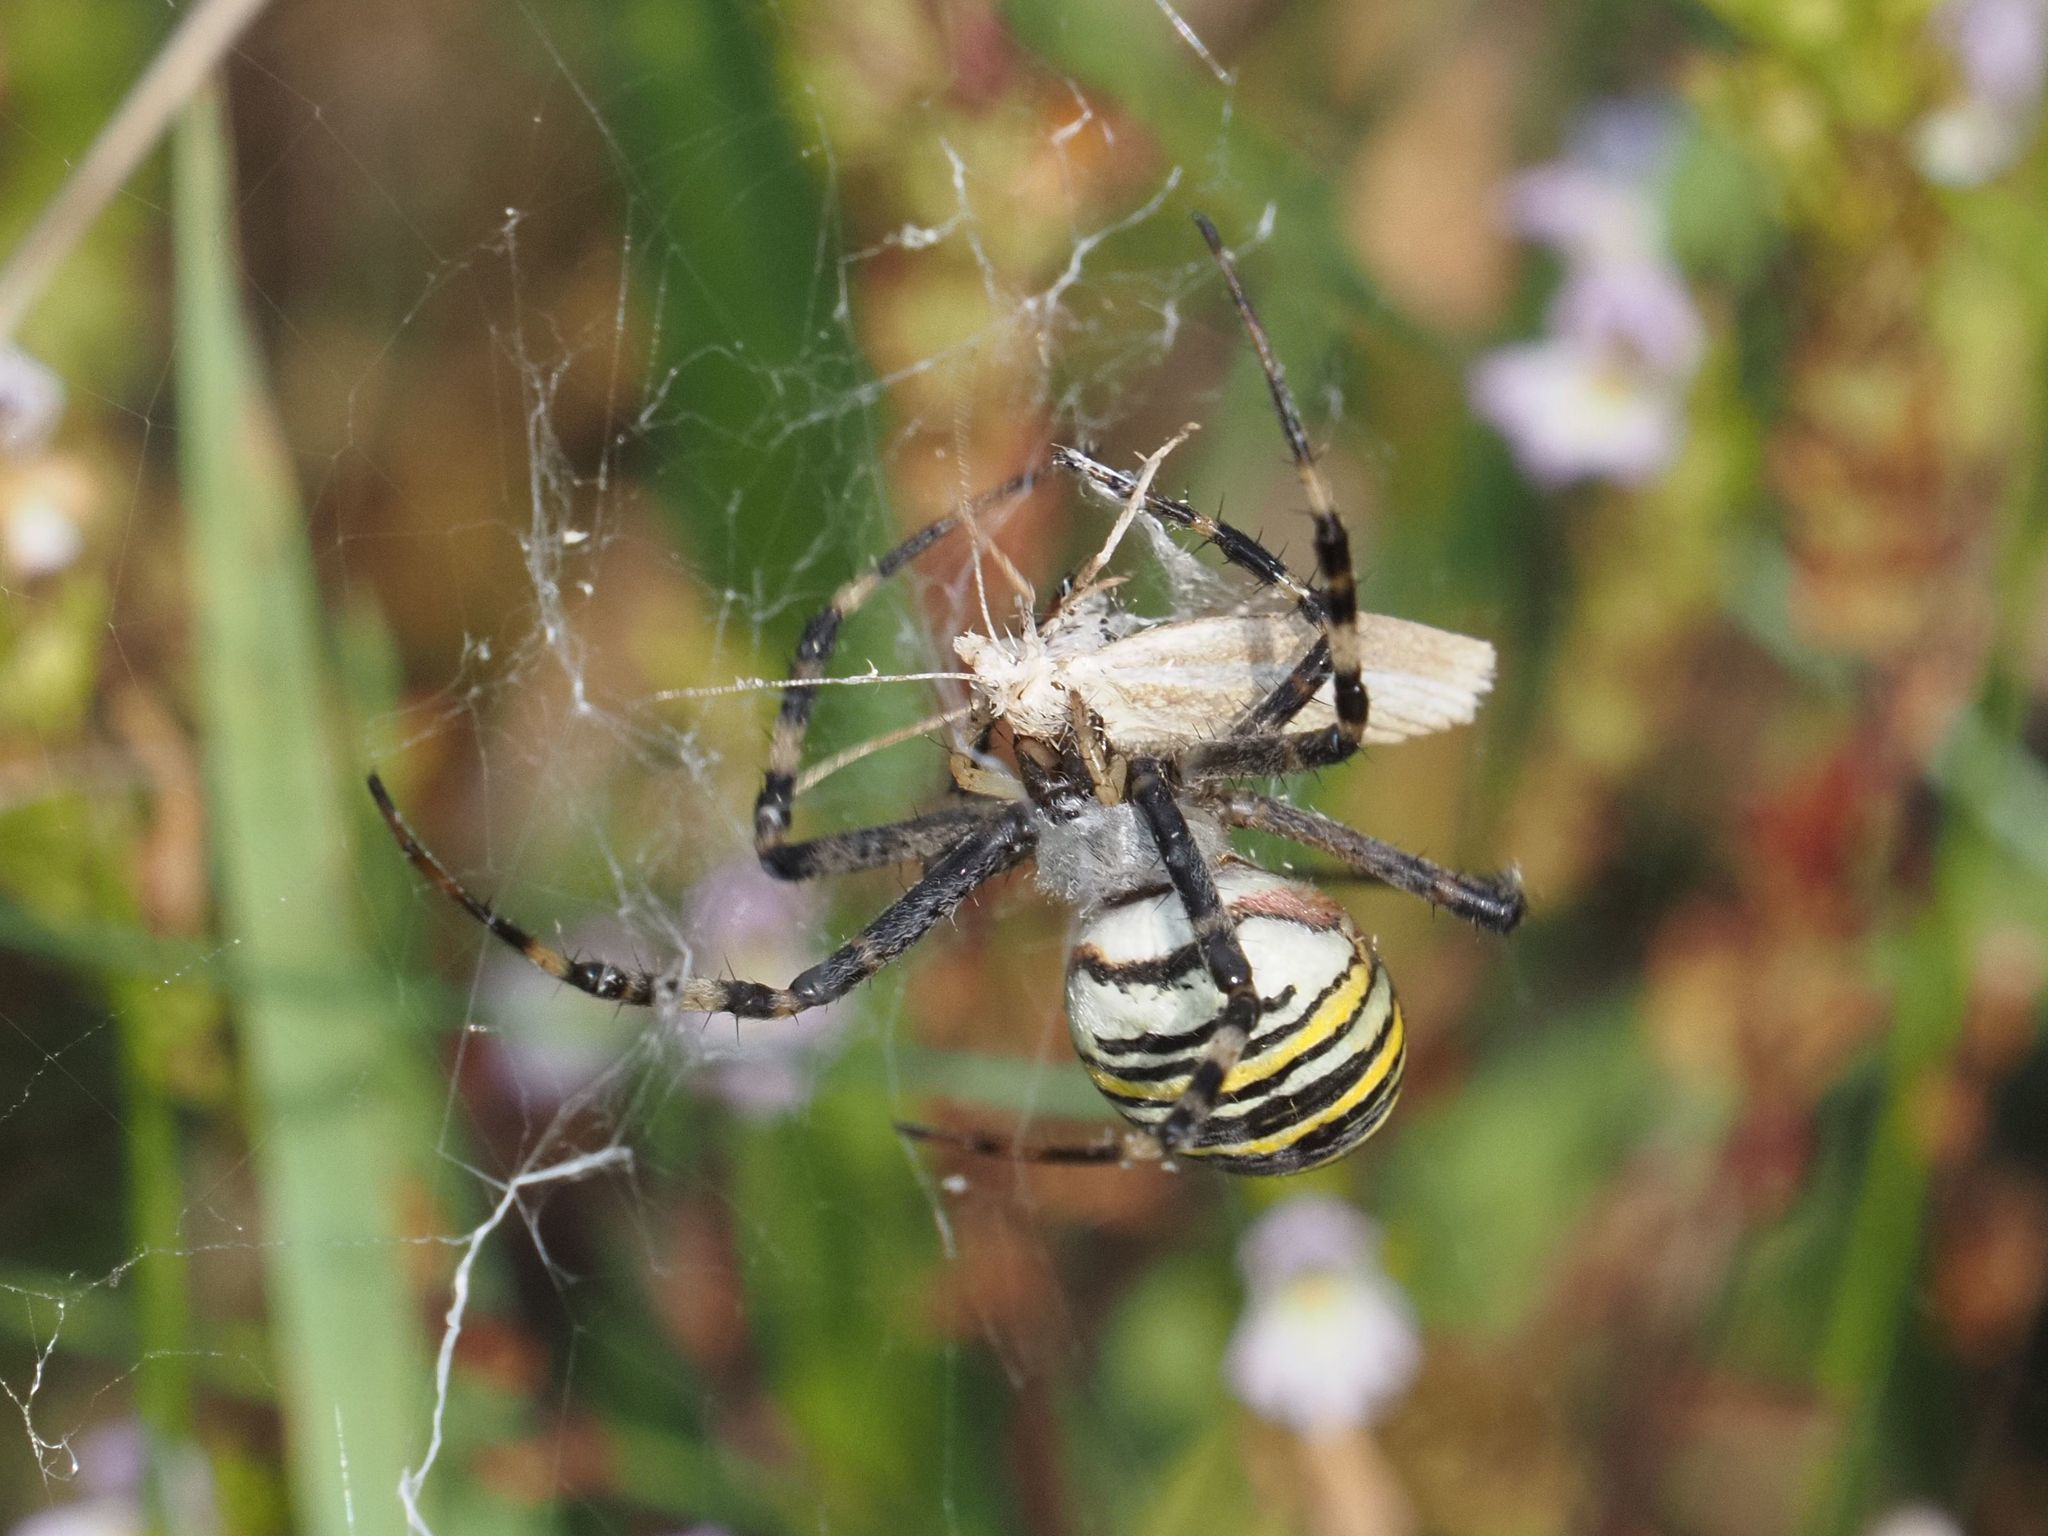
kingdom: Animalia
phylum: Arthropoda
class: Arachnida
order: Araneae
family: Araneidae
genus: Argiope
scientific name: Argiope bruennichi
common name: Wasp spider
